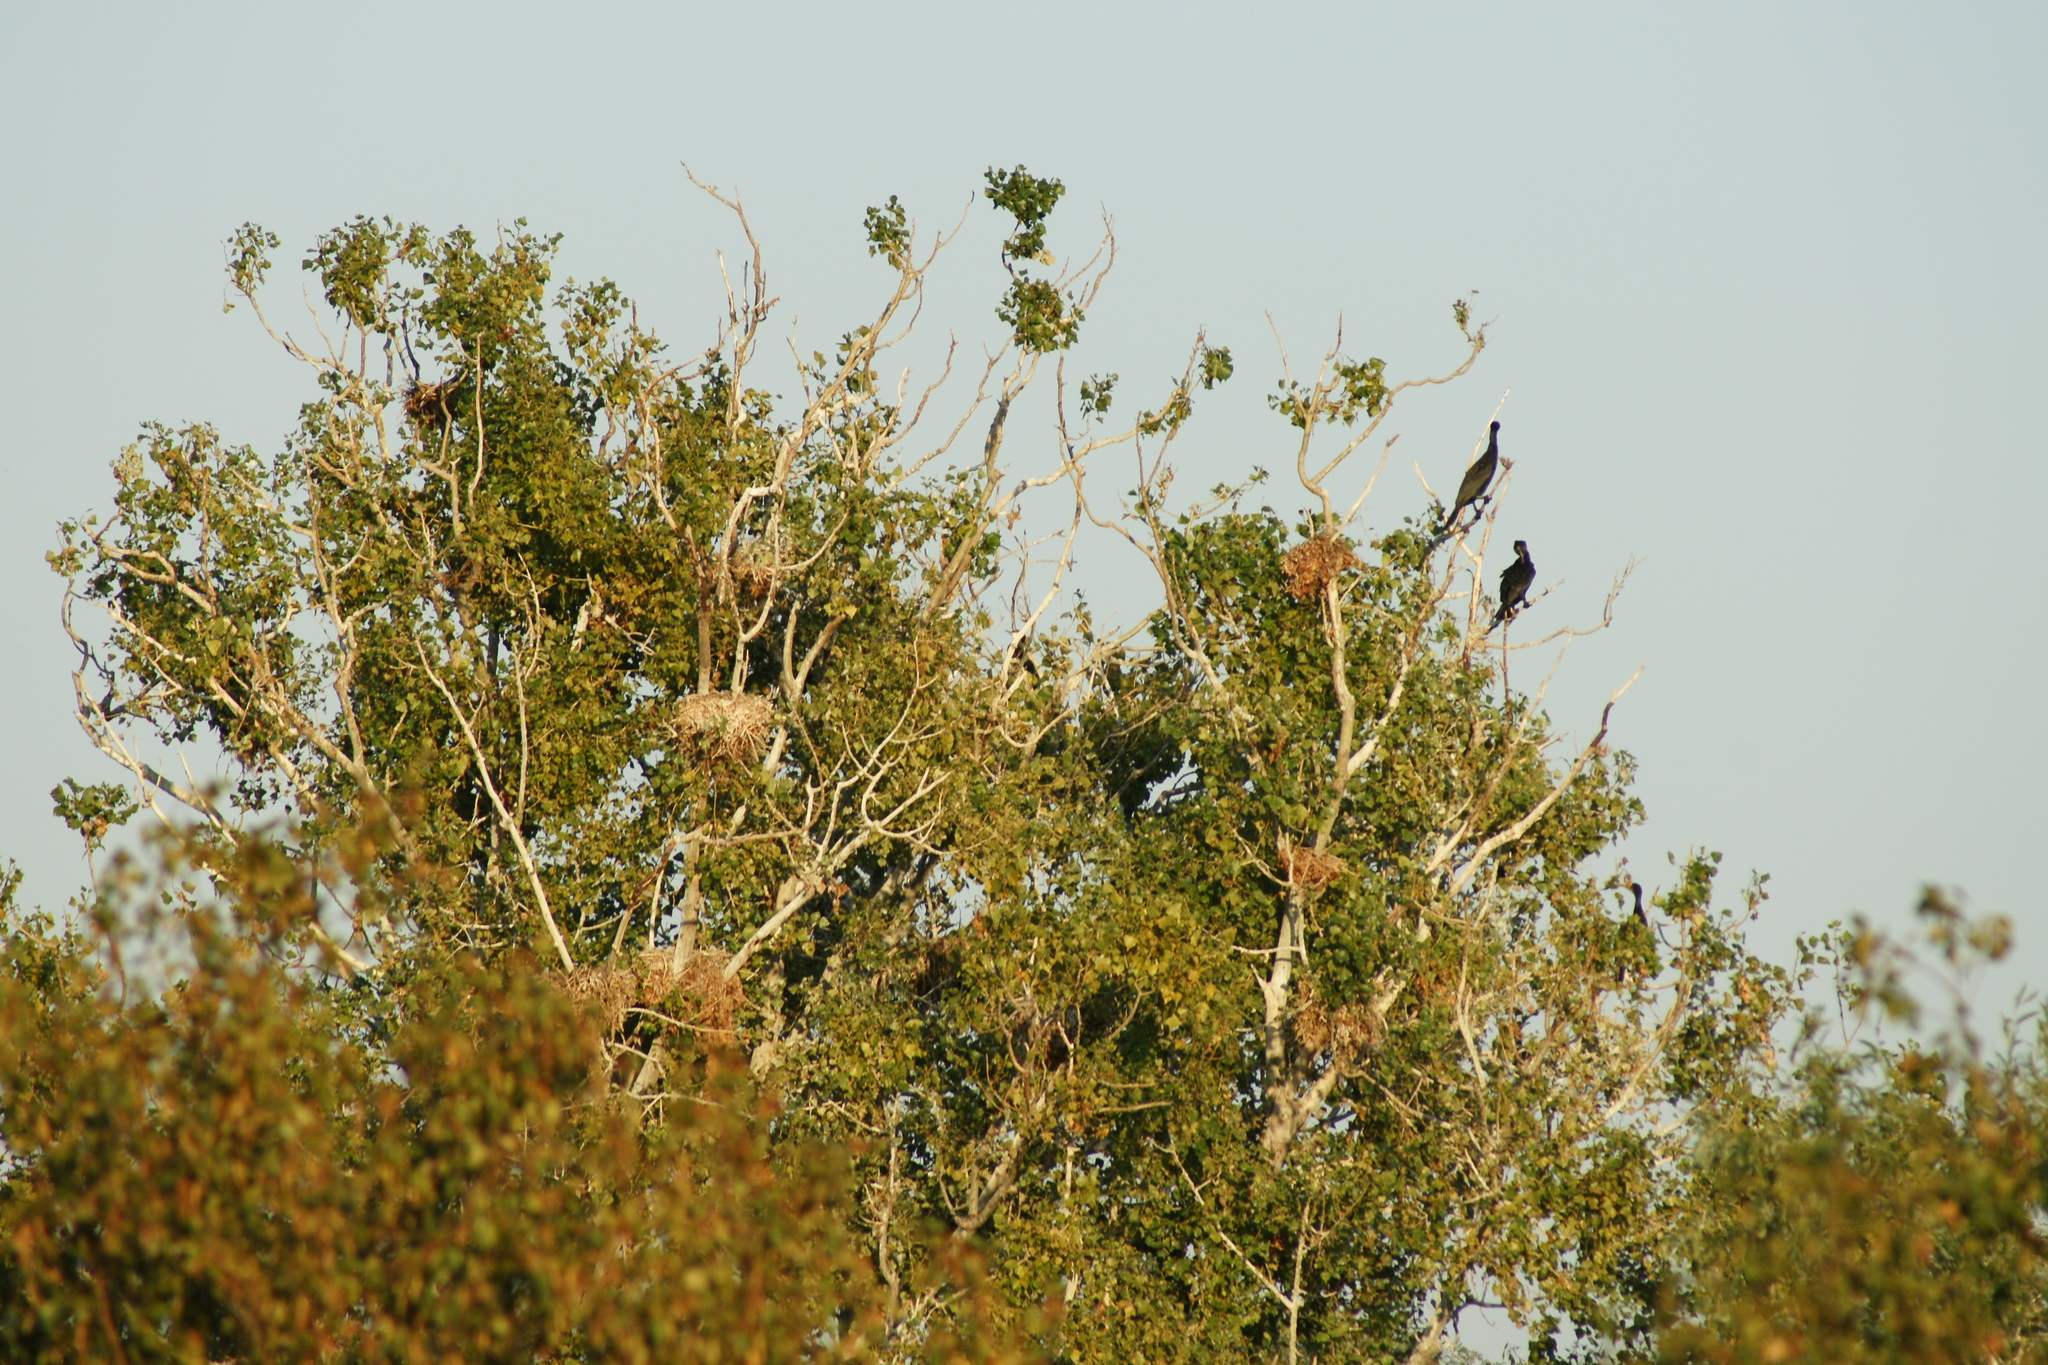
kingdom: Animalia
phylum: Chordata
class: Aves
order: Suliformes
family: Phalacrocoracidae
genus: Phalacrocorax
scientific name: Phalacrocorax carbo
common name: Great cormorant
